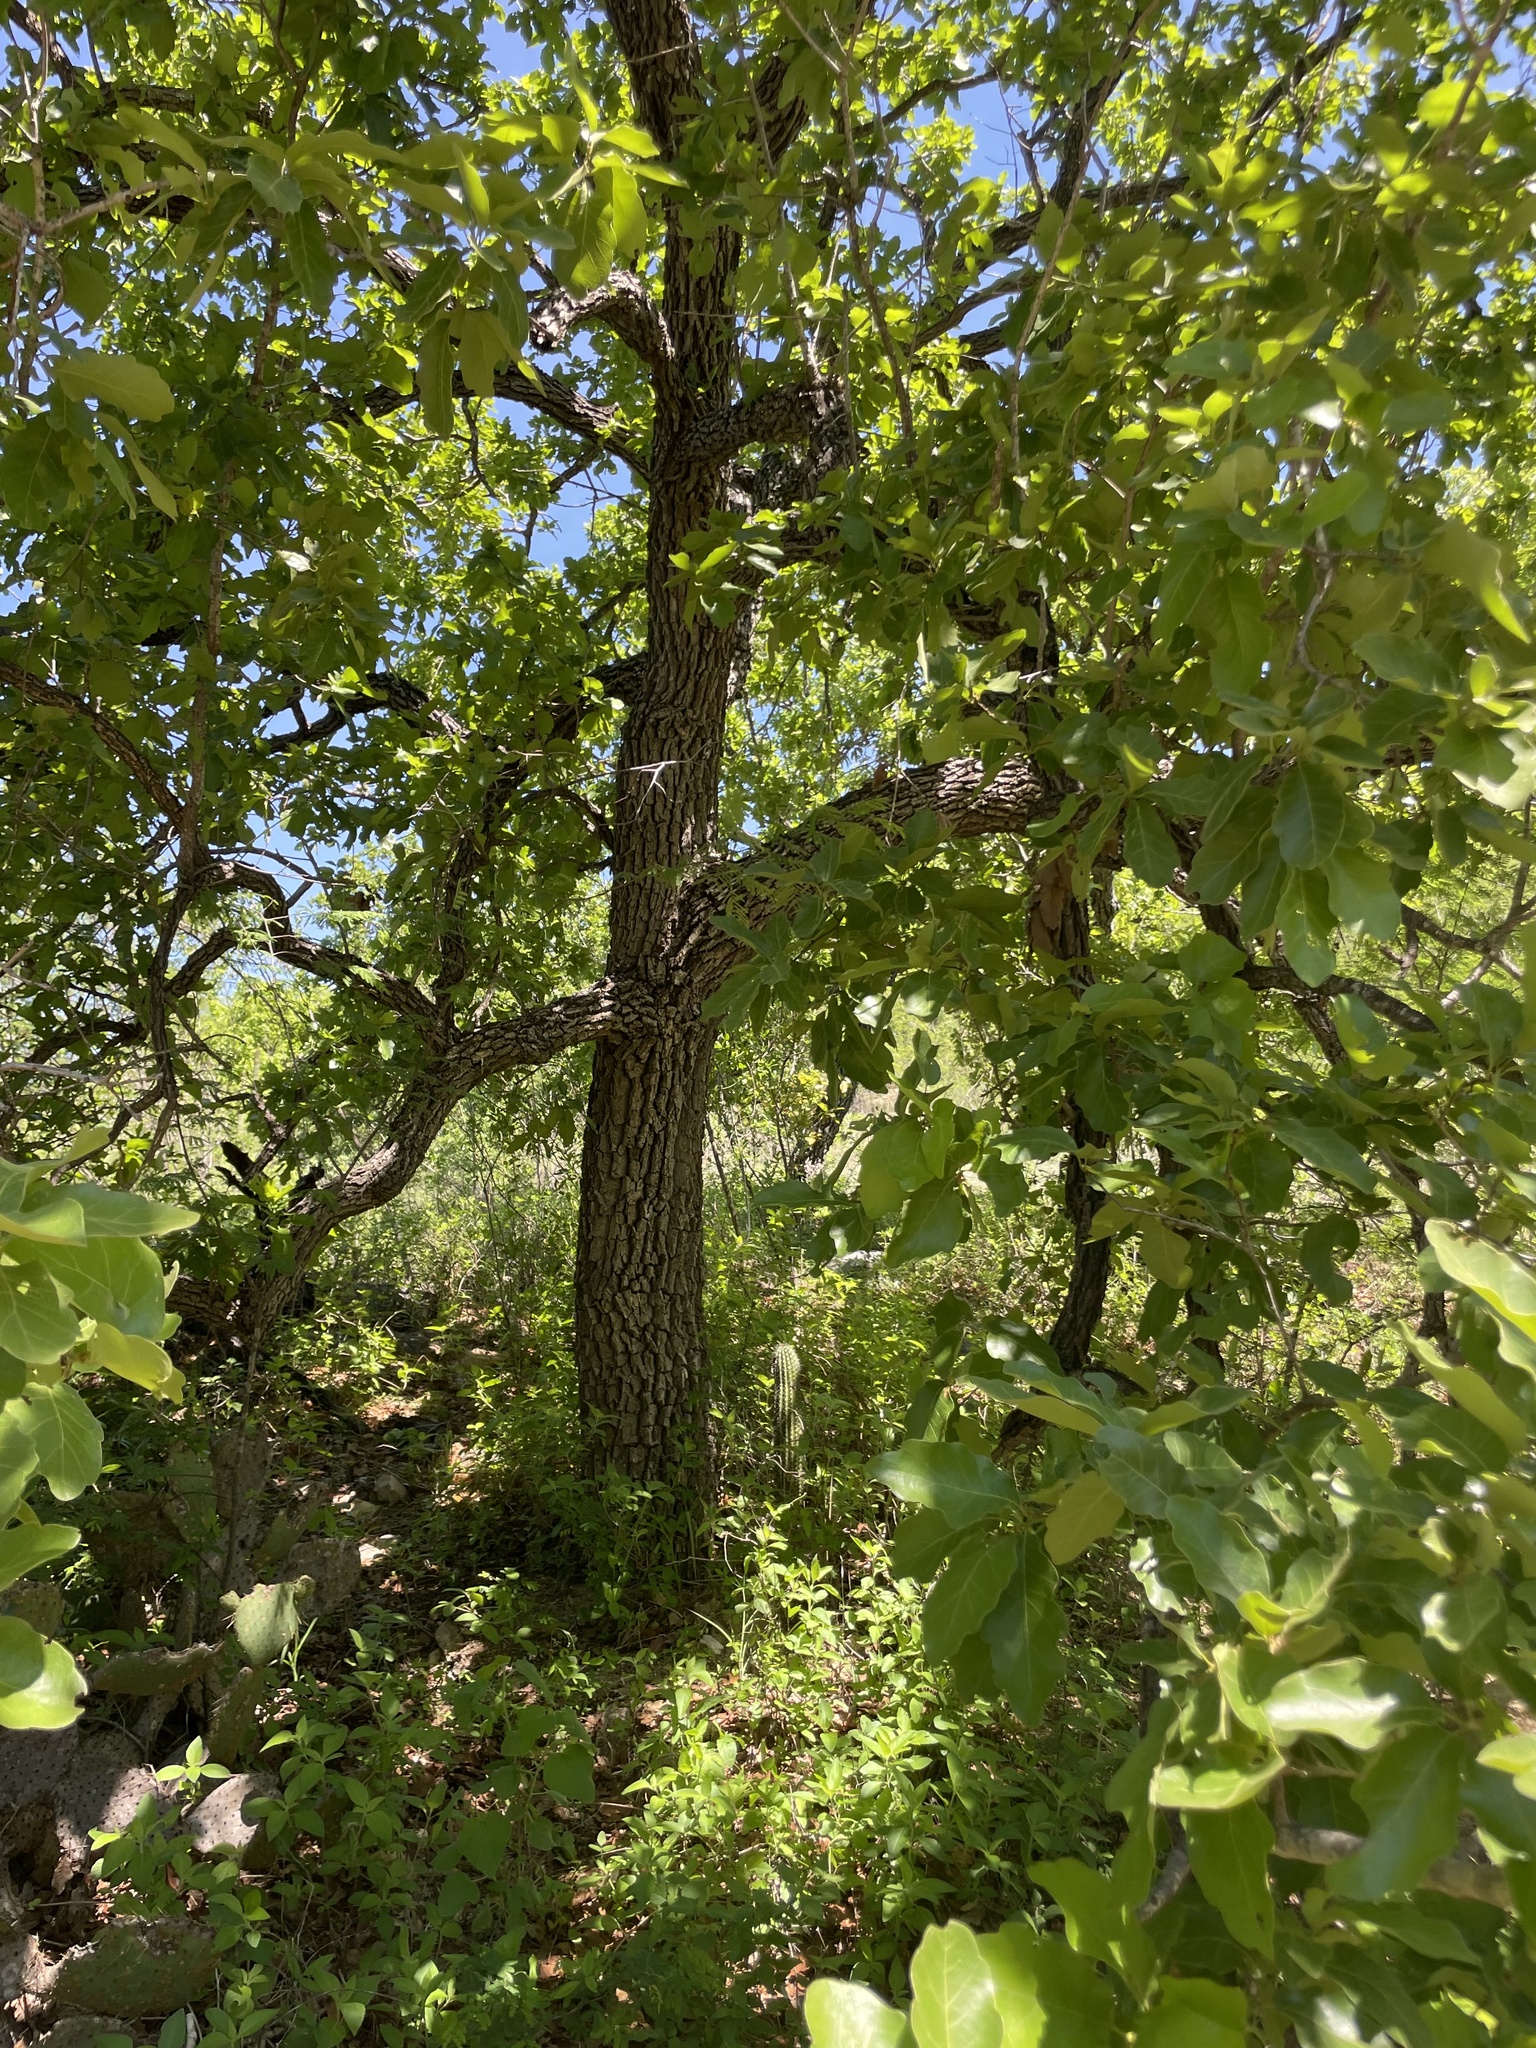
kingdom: Plantae
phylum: Tracheophyta
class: Magnoliopsida
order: Fagales
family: Fagaceae
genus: Quercus
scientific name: Quercus tuberculata
